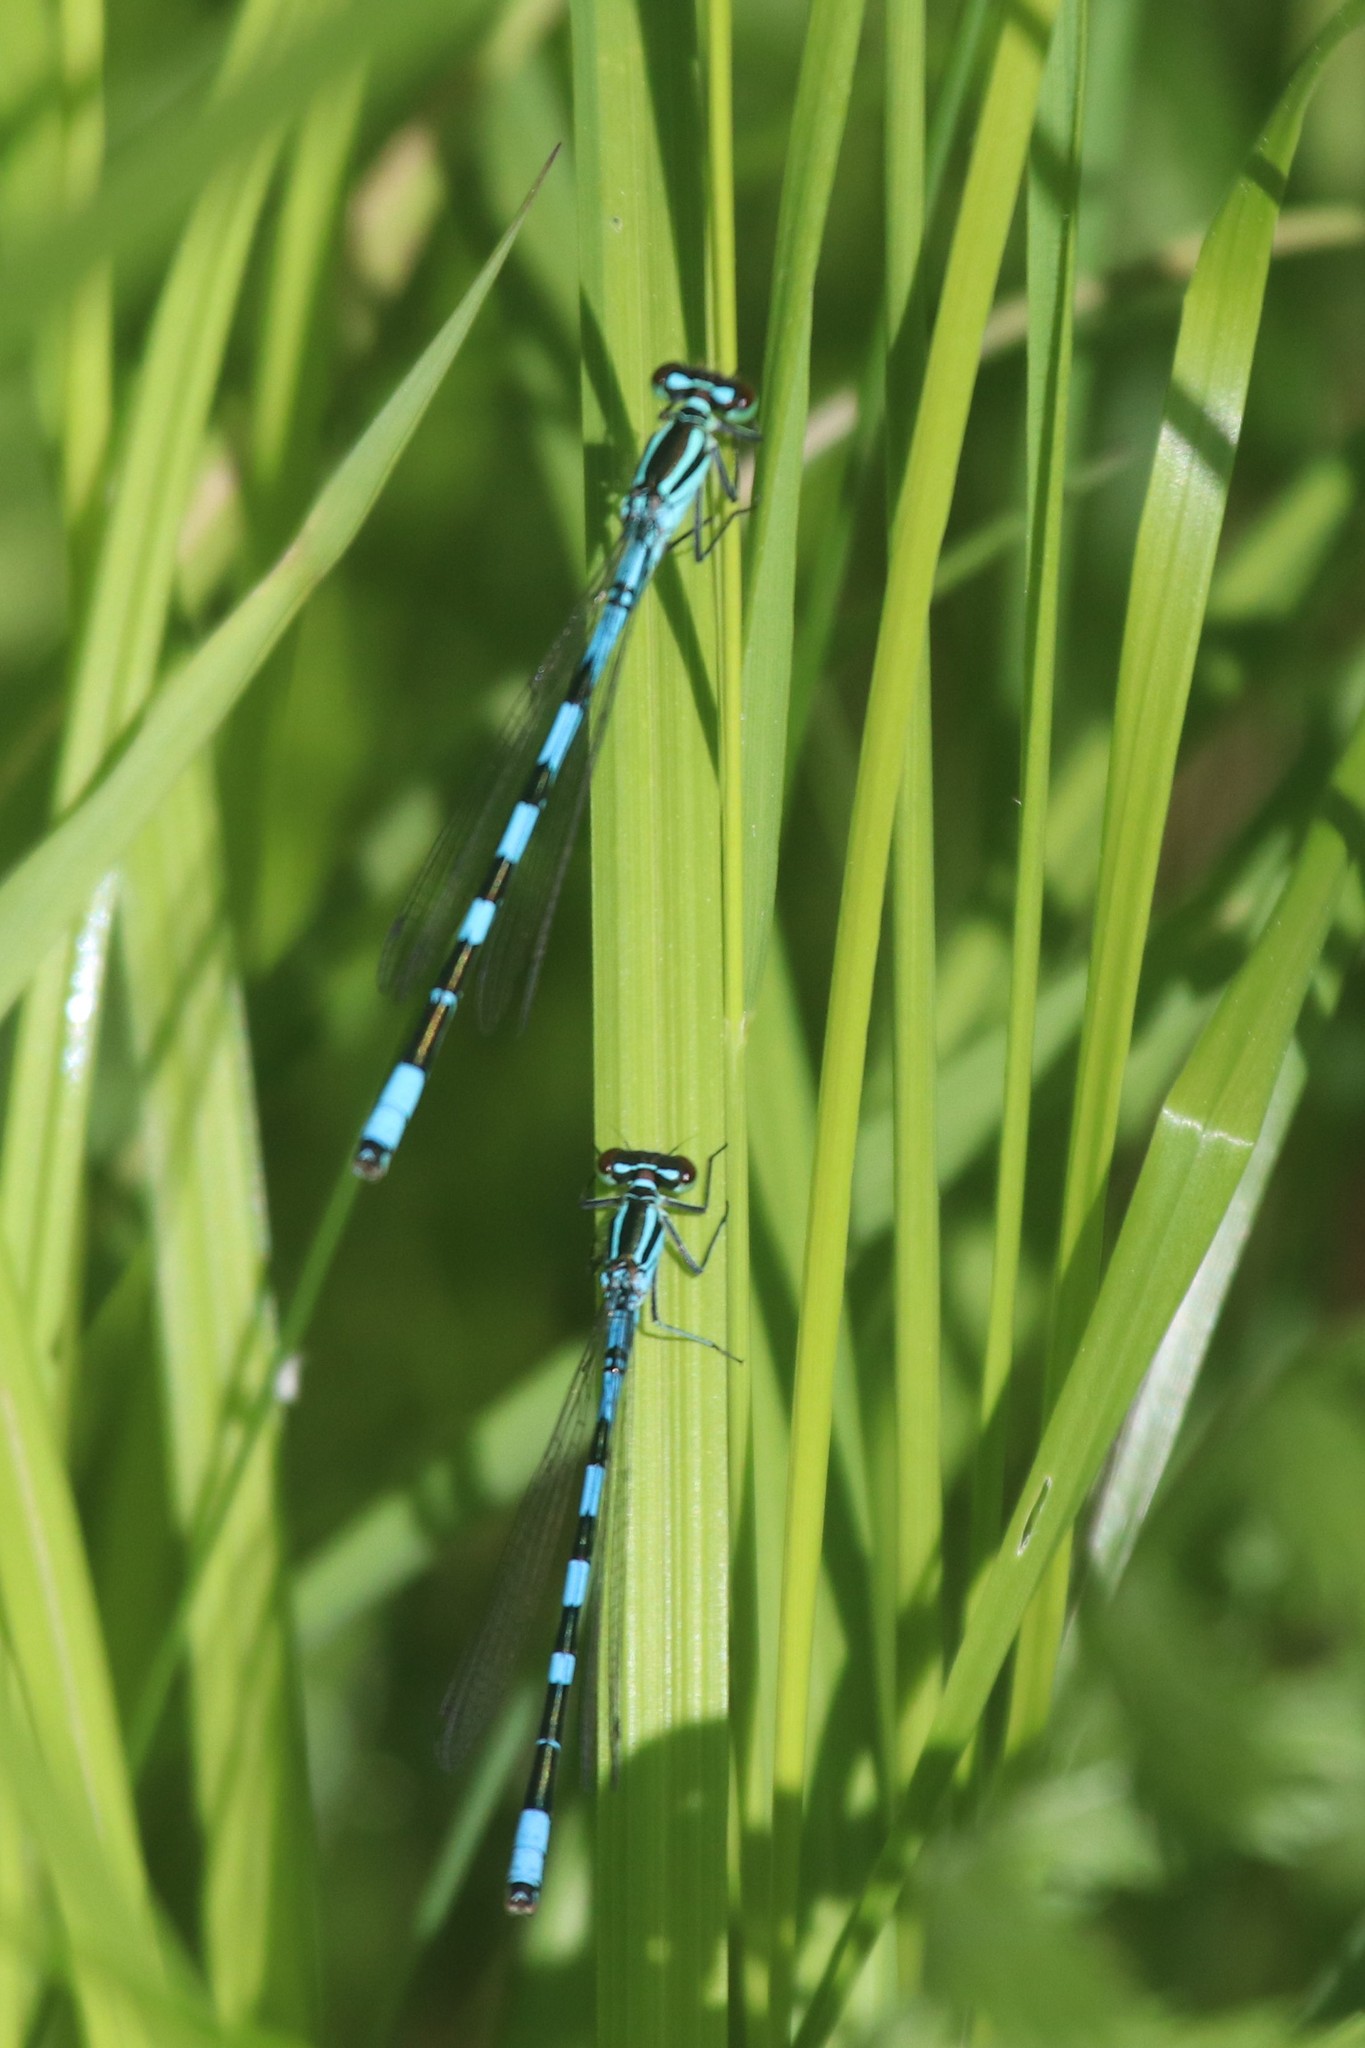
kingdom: Animalia
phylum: Arthropoda
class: Insecta
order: Odonata
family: Coenagrionidae
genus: Coenagrion
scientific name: Coenagrion hastulatum
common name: Spearhead bluet
